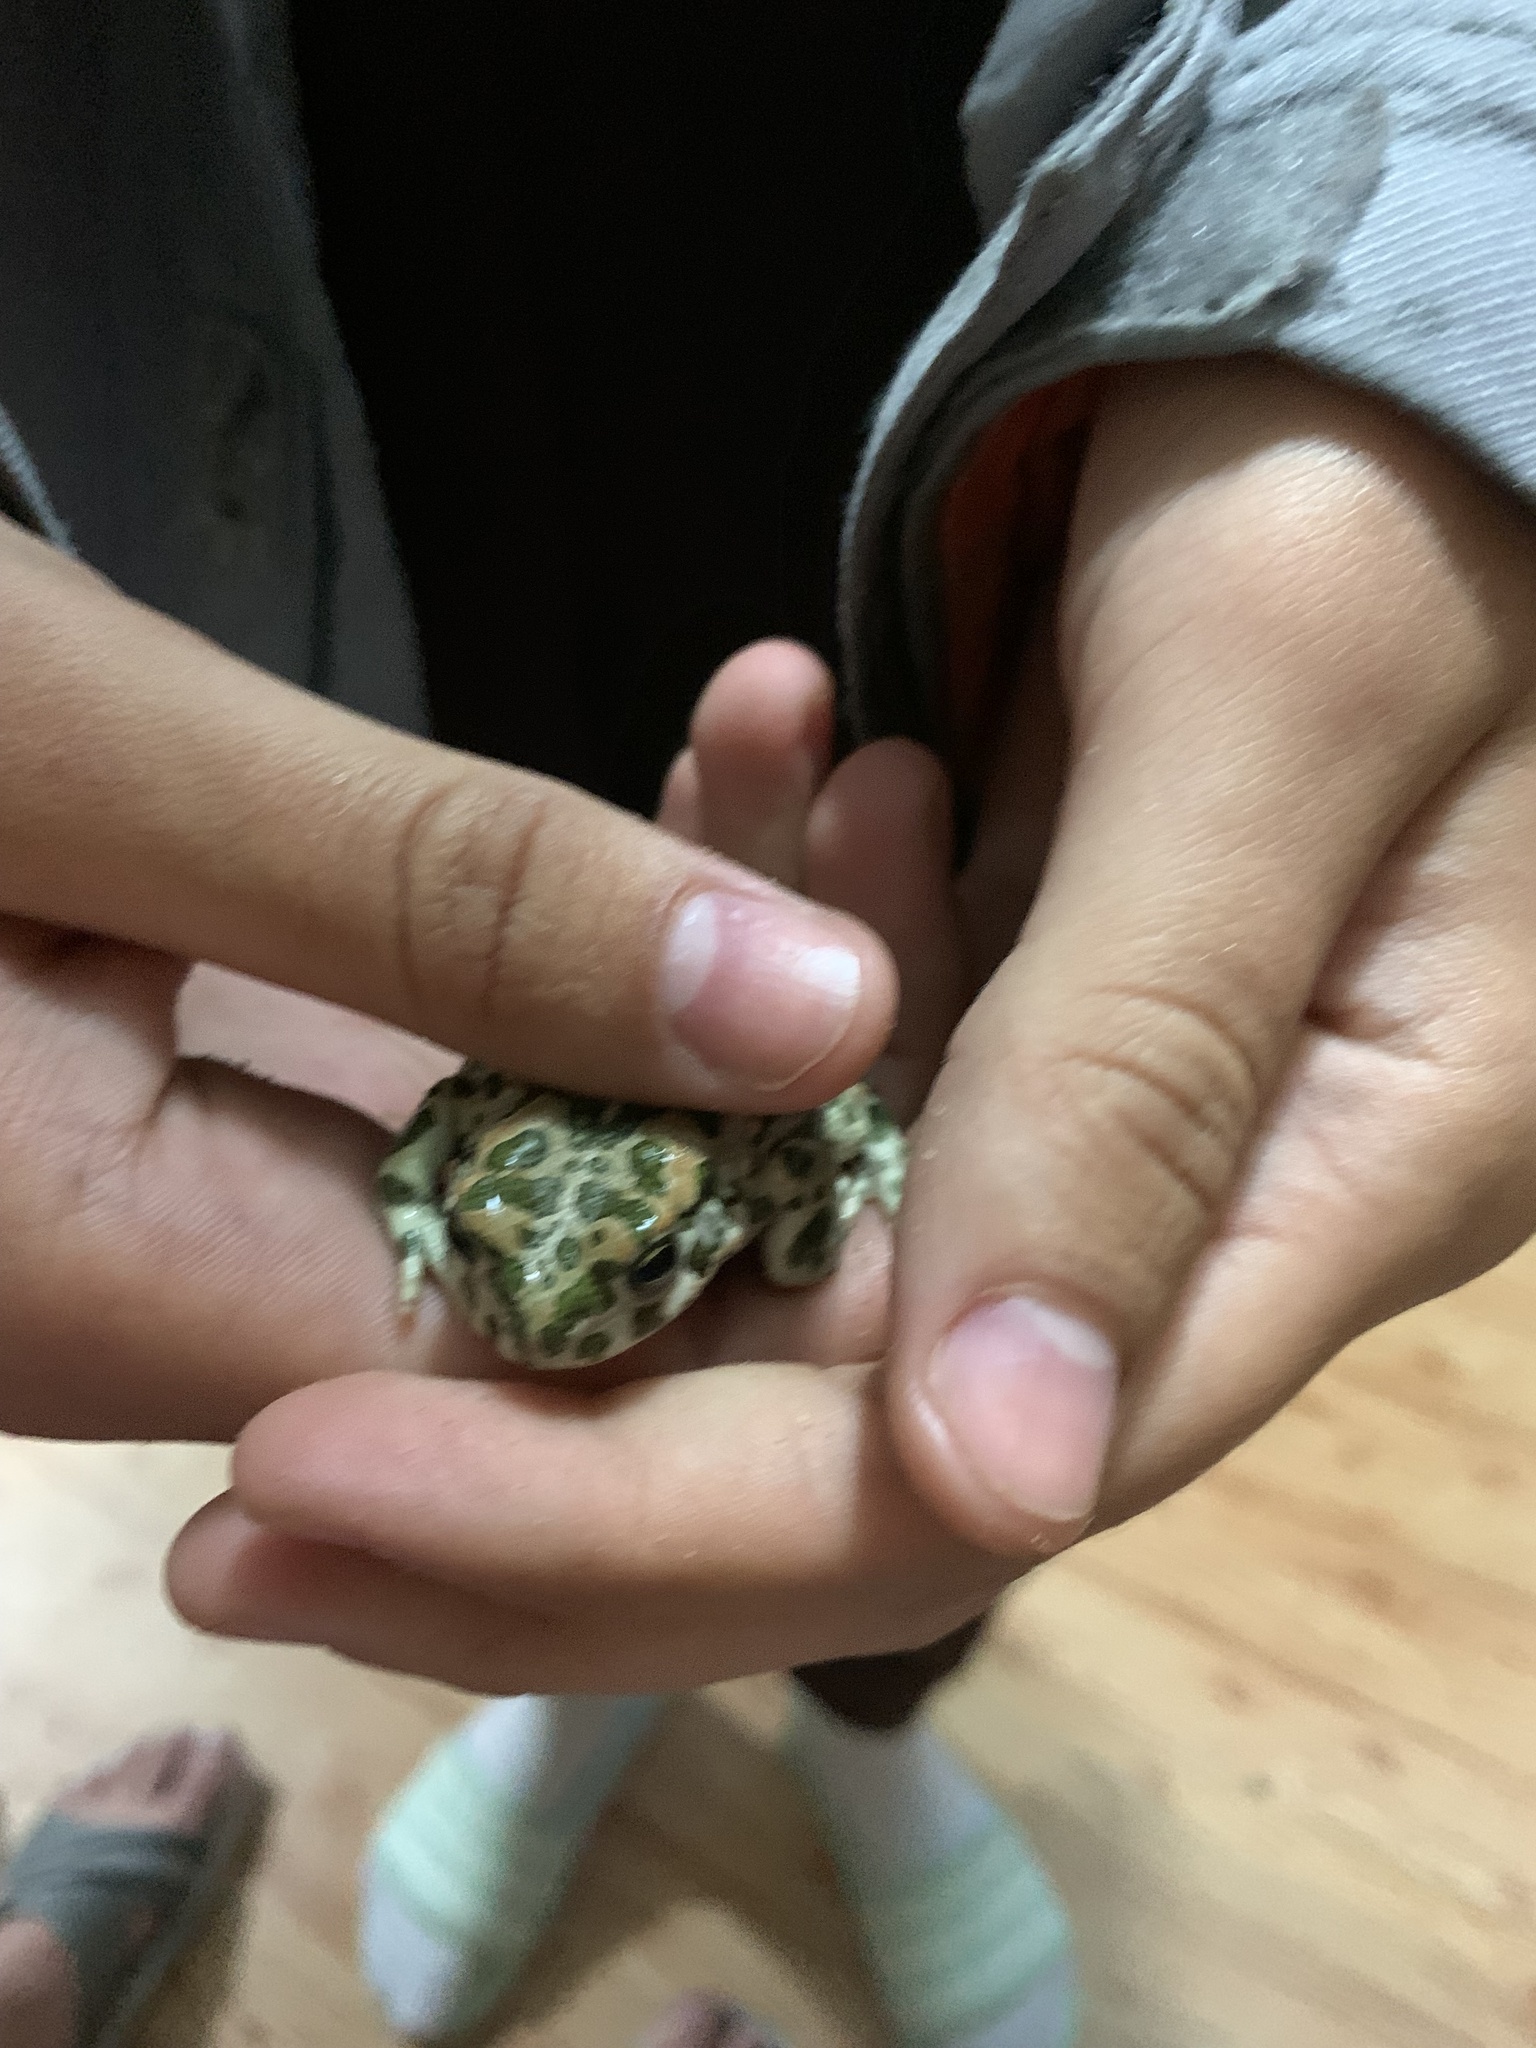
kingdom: Animalia
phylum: Chordata
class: Amphibia
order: Anura
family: Bufonidae
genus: Bufotes
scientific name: Bufotes viridis
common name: European green toad
